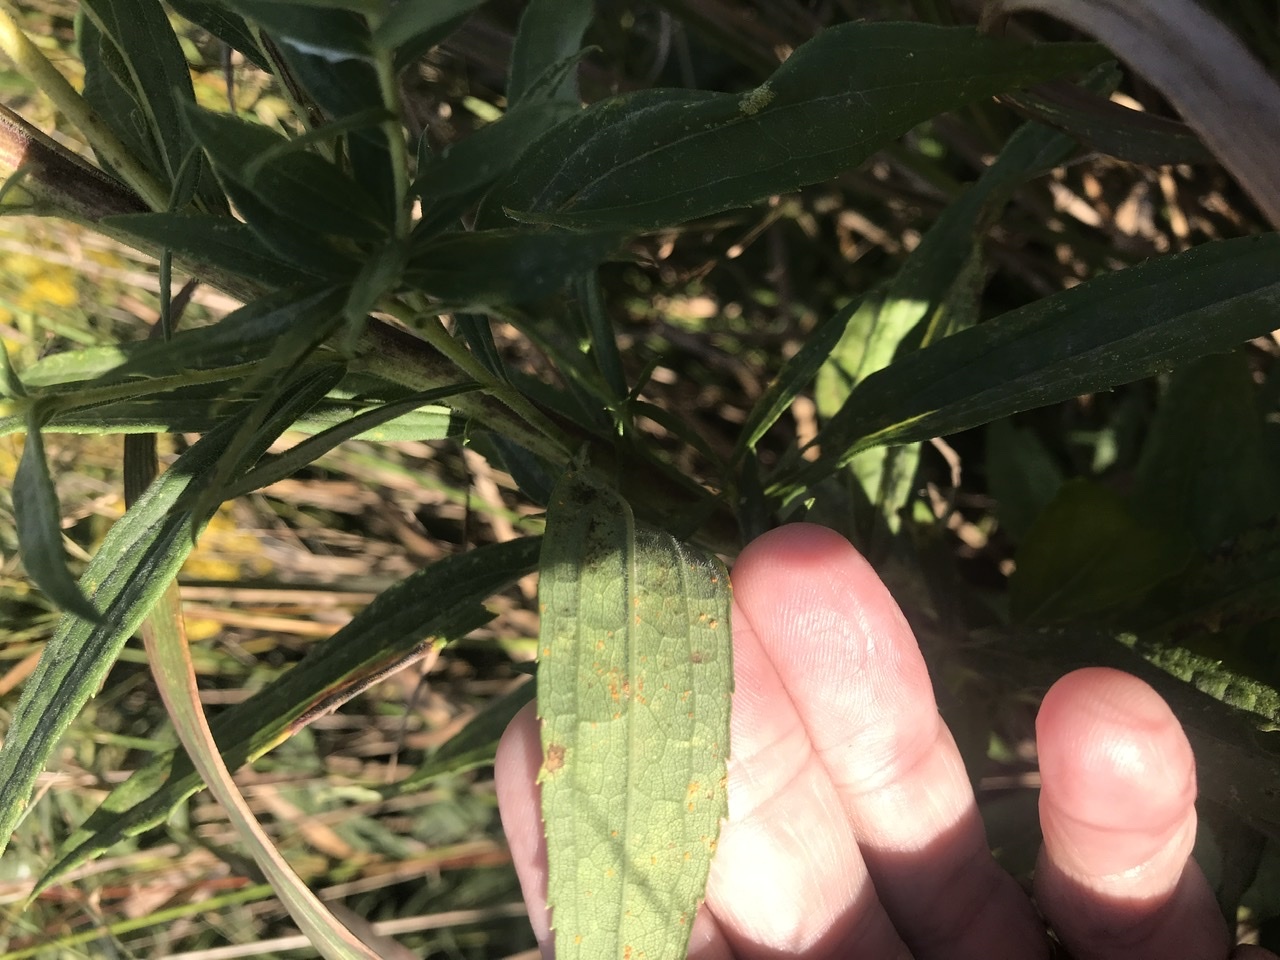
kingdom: Plantae
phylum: Tracheophyta
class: Magnoliopsida
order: Asterales
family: Asteraceae
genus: Solidago
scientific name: Solidago altissima
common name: Late goldenrod
